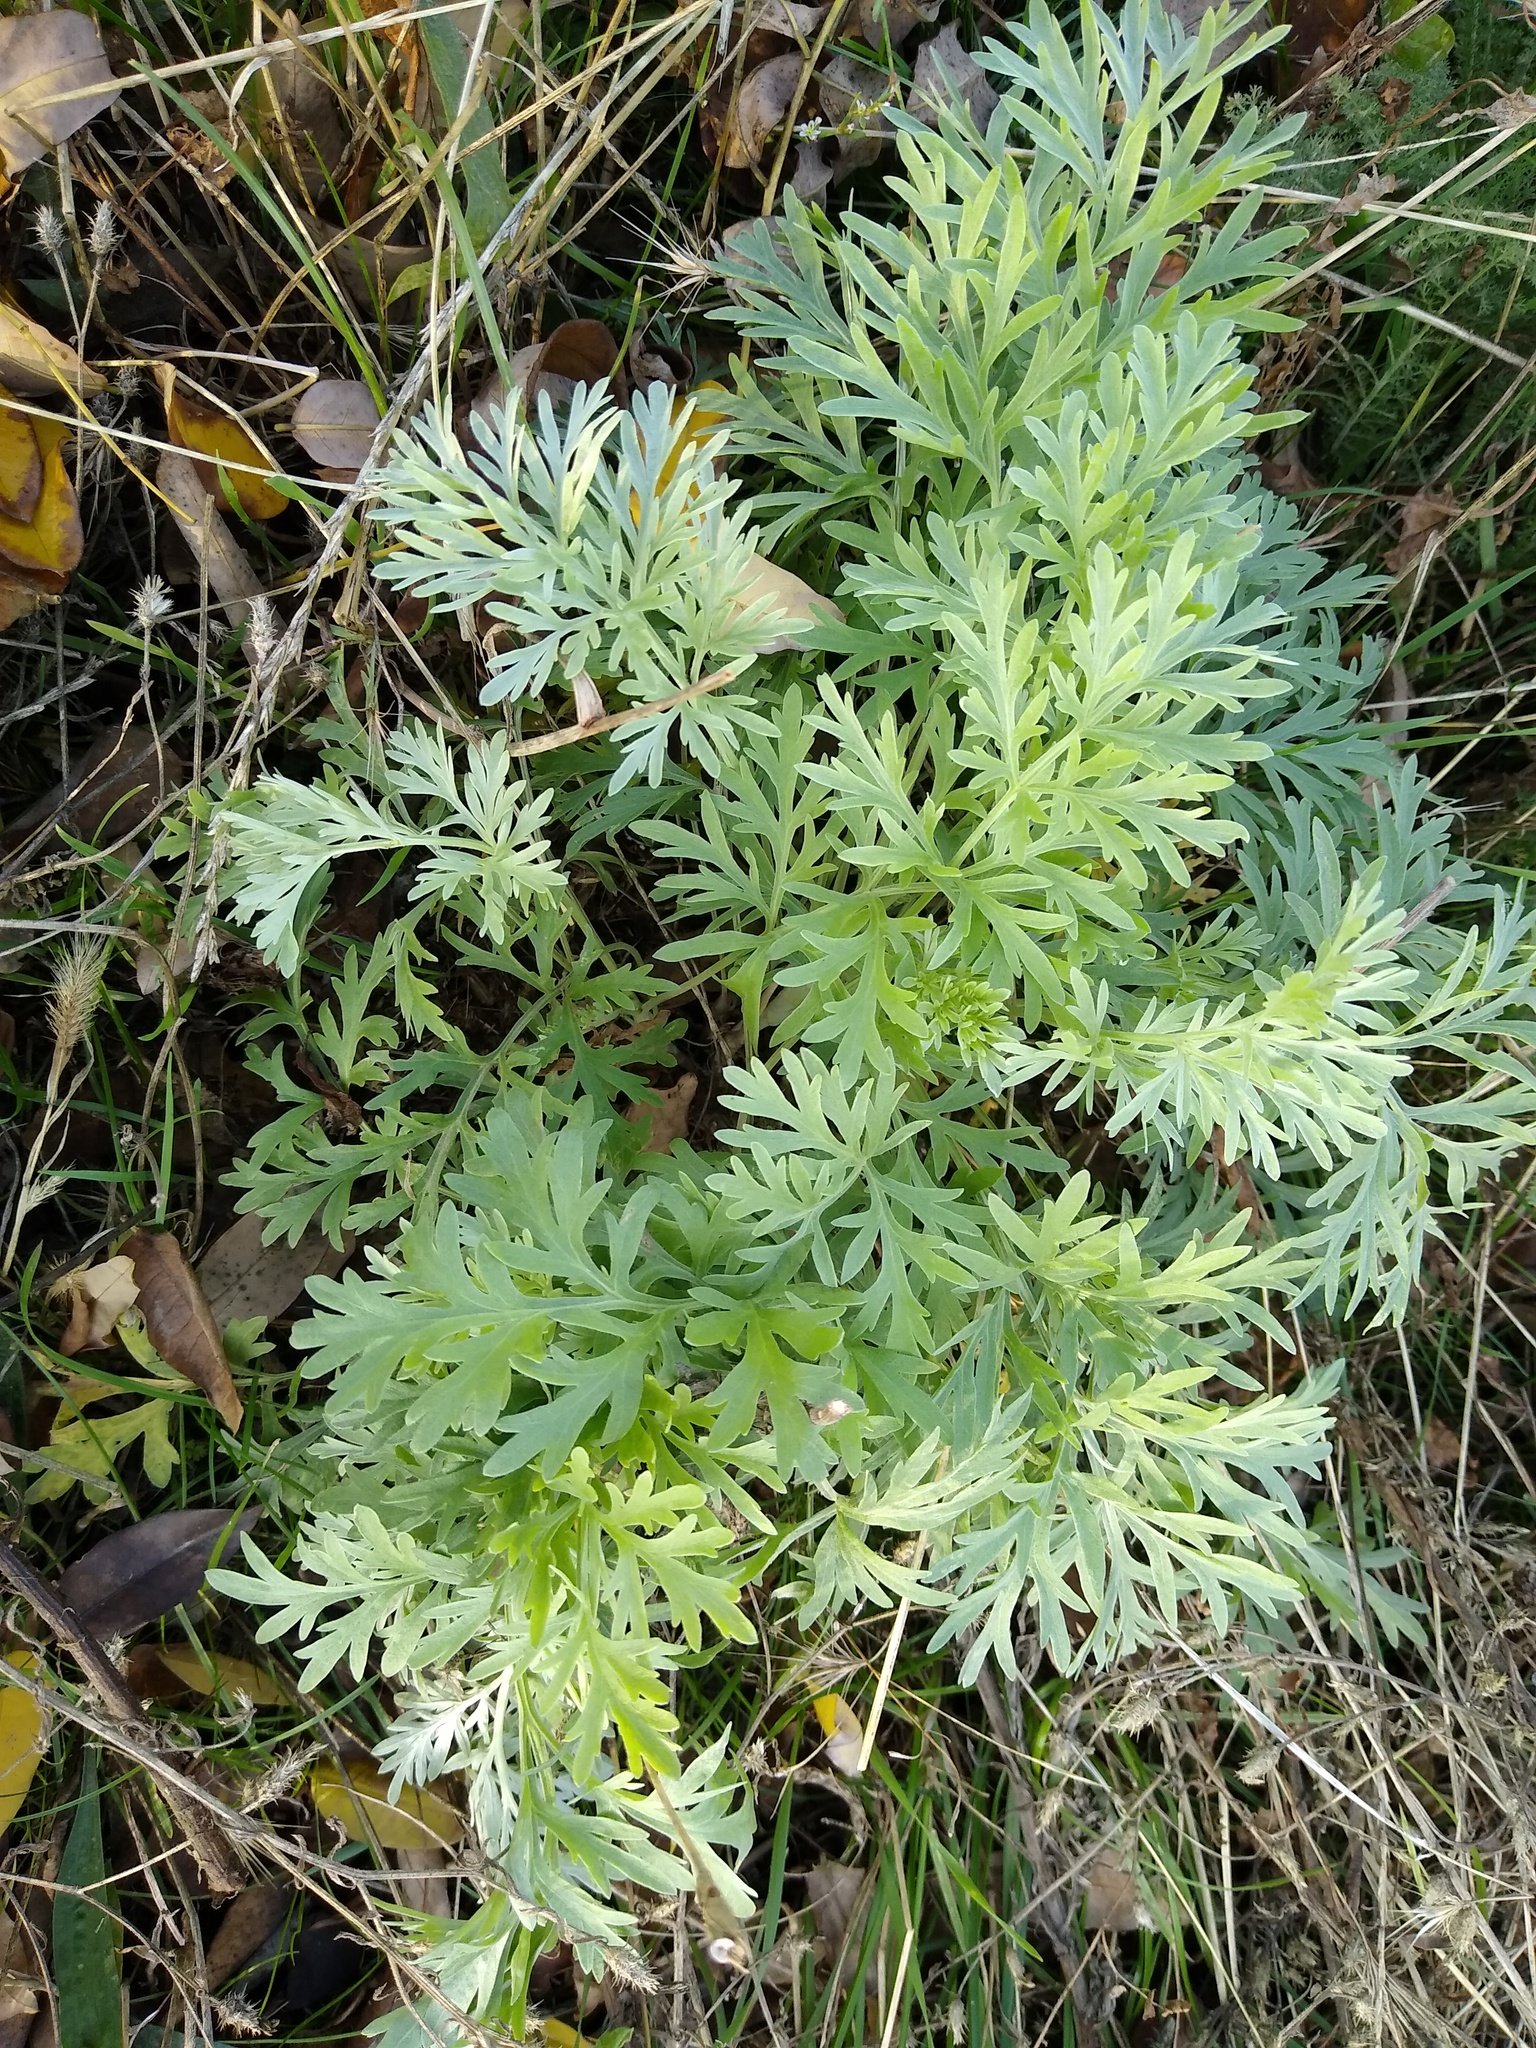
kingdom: Plantae
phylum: Tracheophyta
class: Magnoliopsida
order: Asterales
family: Asteraceae
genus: Artemisia
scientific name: Artemisia absinthium
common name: Wormwood
